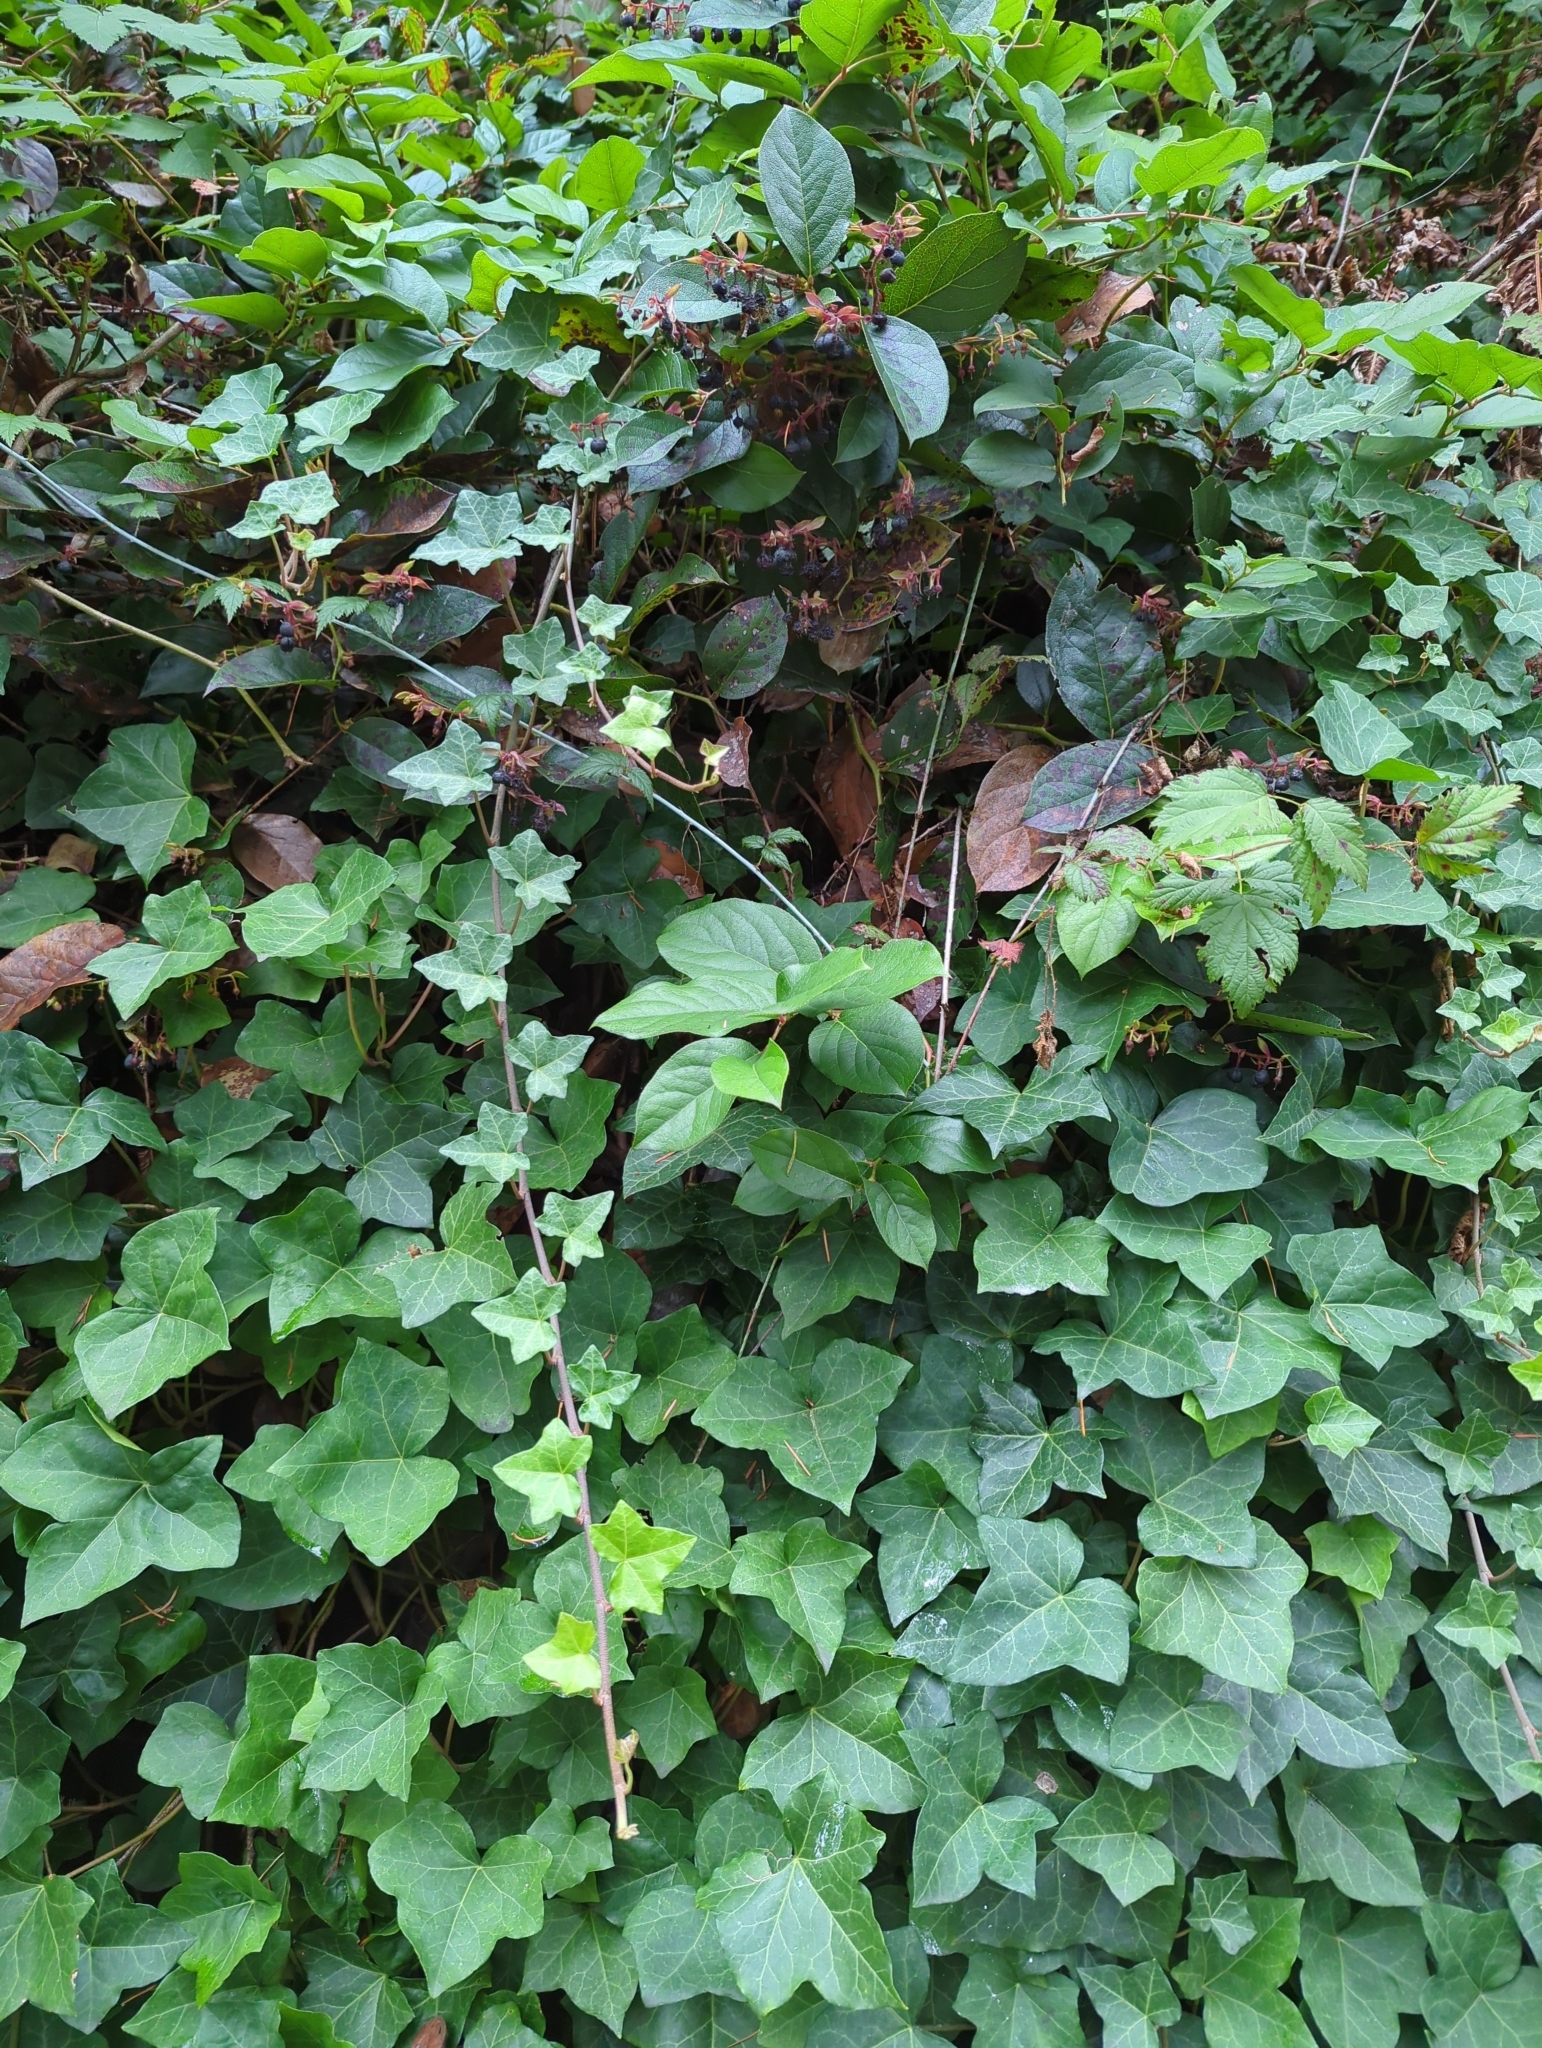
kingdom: Plantae
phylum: Tracheophyta
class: Magnoliopsida
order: Apiales
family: Araliaceae
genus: Hedera
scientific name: Hedera helix
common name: Ivy
